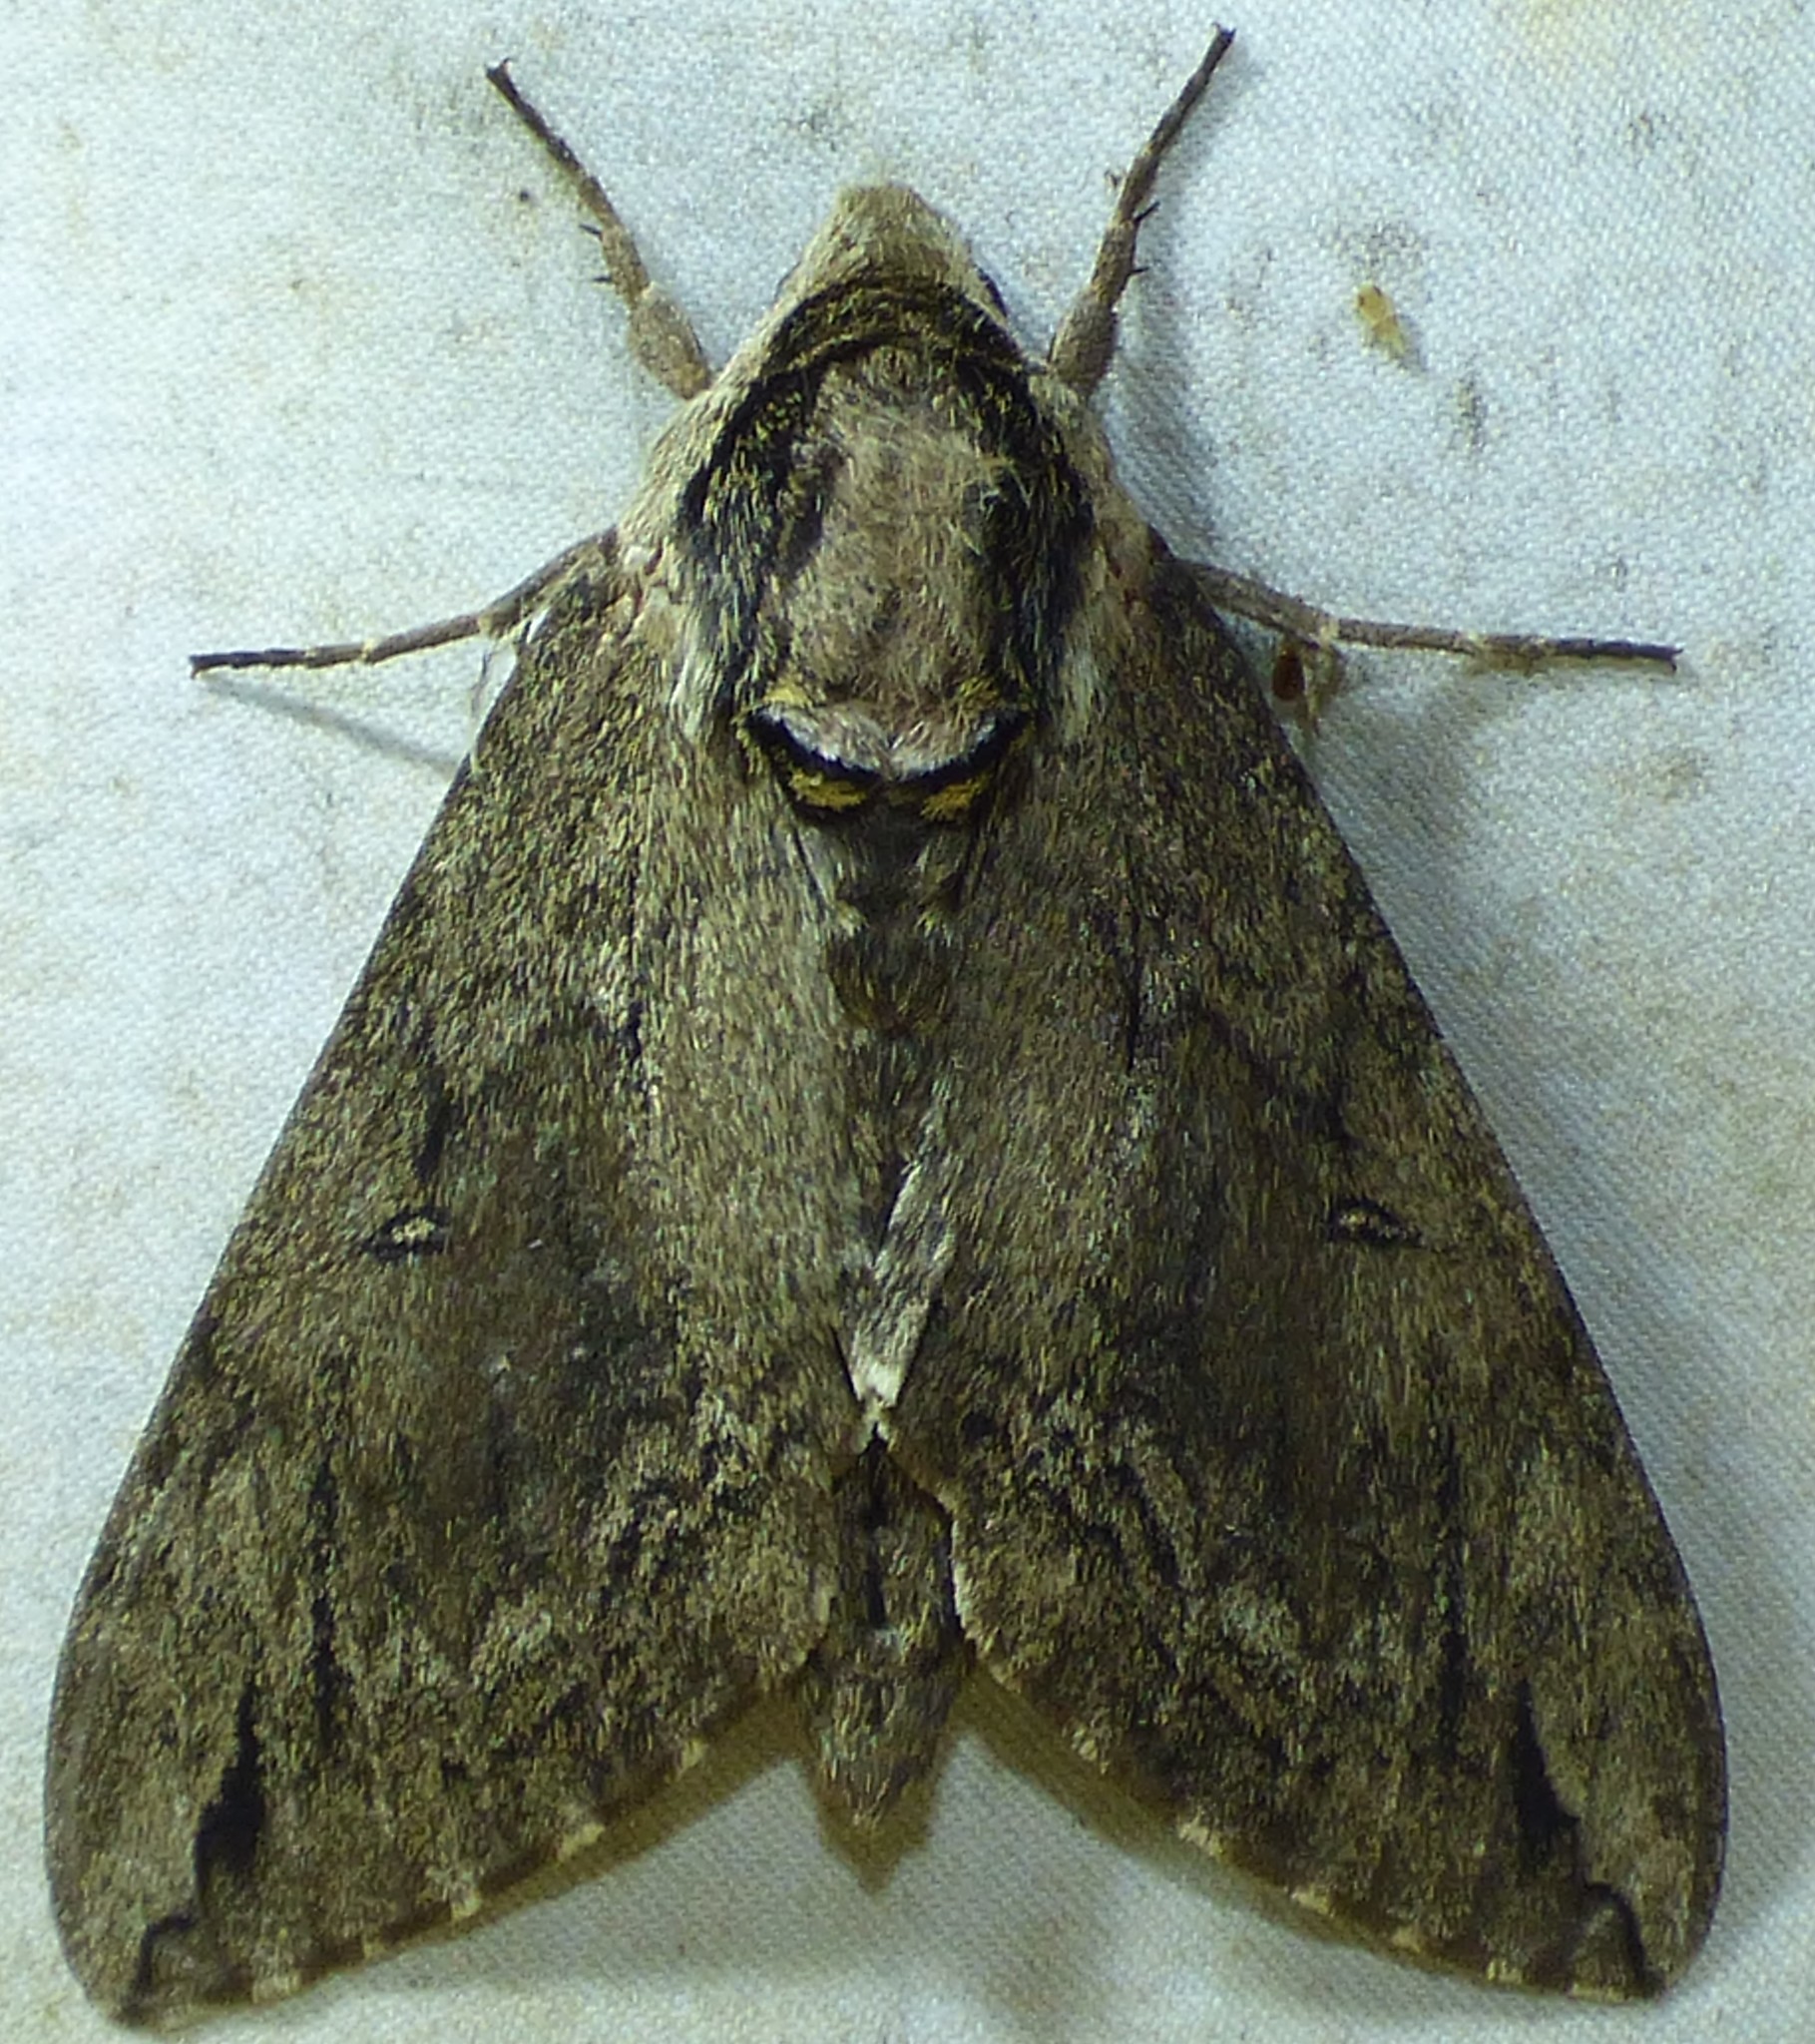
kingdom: Animalia
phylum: Arthropoda
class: Insecta
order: Lepidoptera
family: Sphingidae
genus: Ceratomia
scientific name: Ceratomia catalpae
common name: Catalpa hornworm
